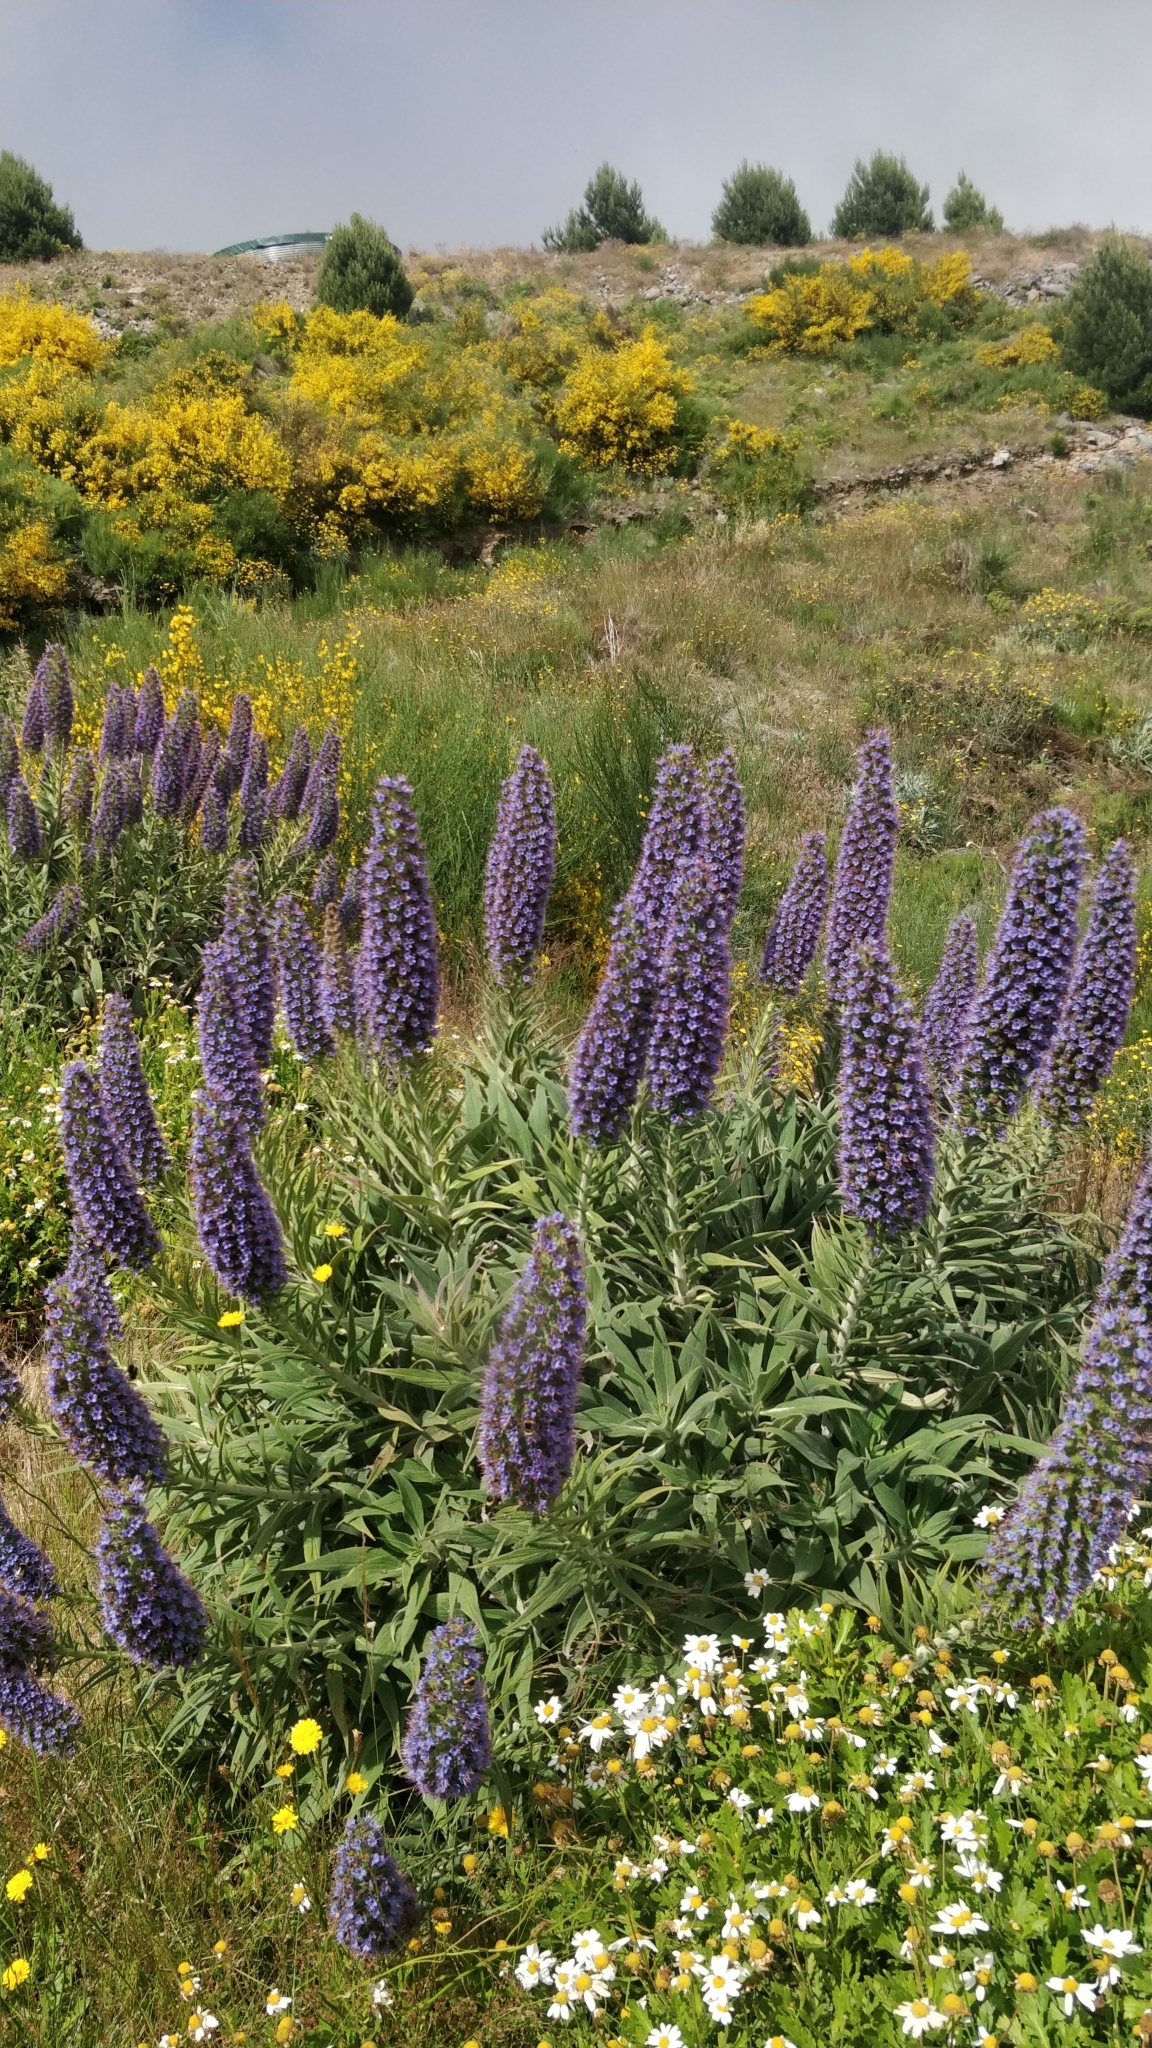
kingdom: Plantae
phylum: Tracheophyta
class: Magnoliopsida
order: Boraginales
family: Boraginaceae
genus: Echium
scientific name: Echium candicans
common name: Pride of madeira
